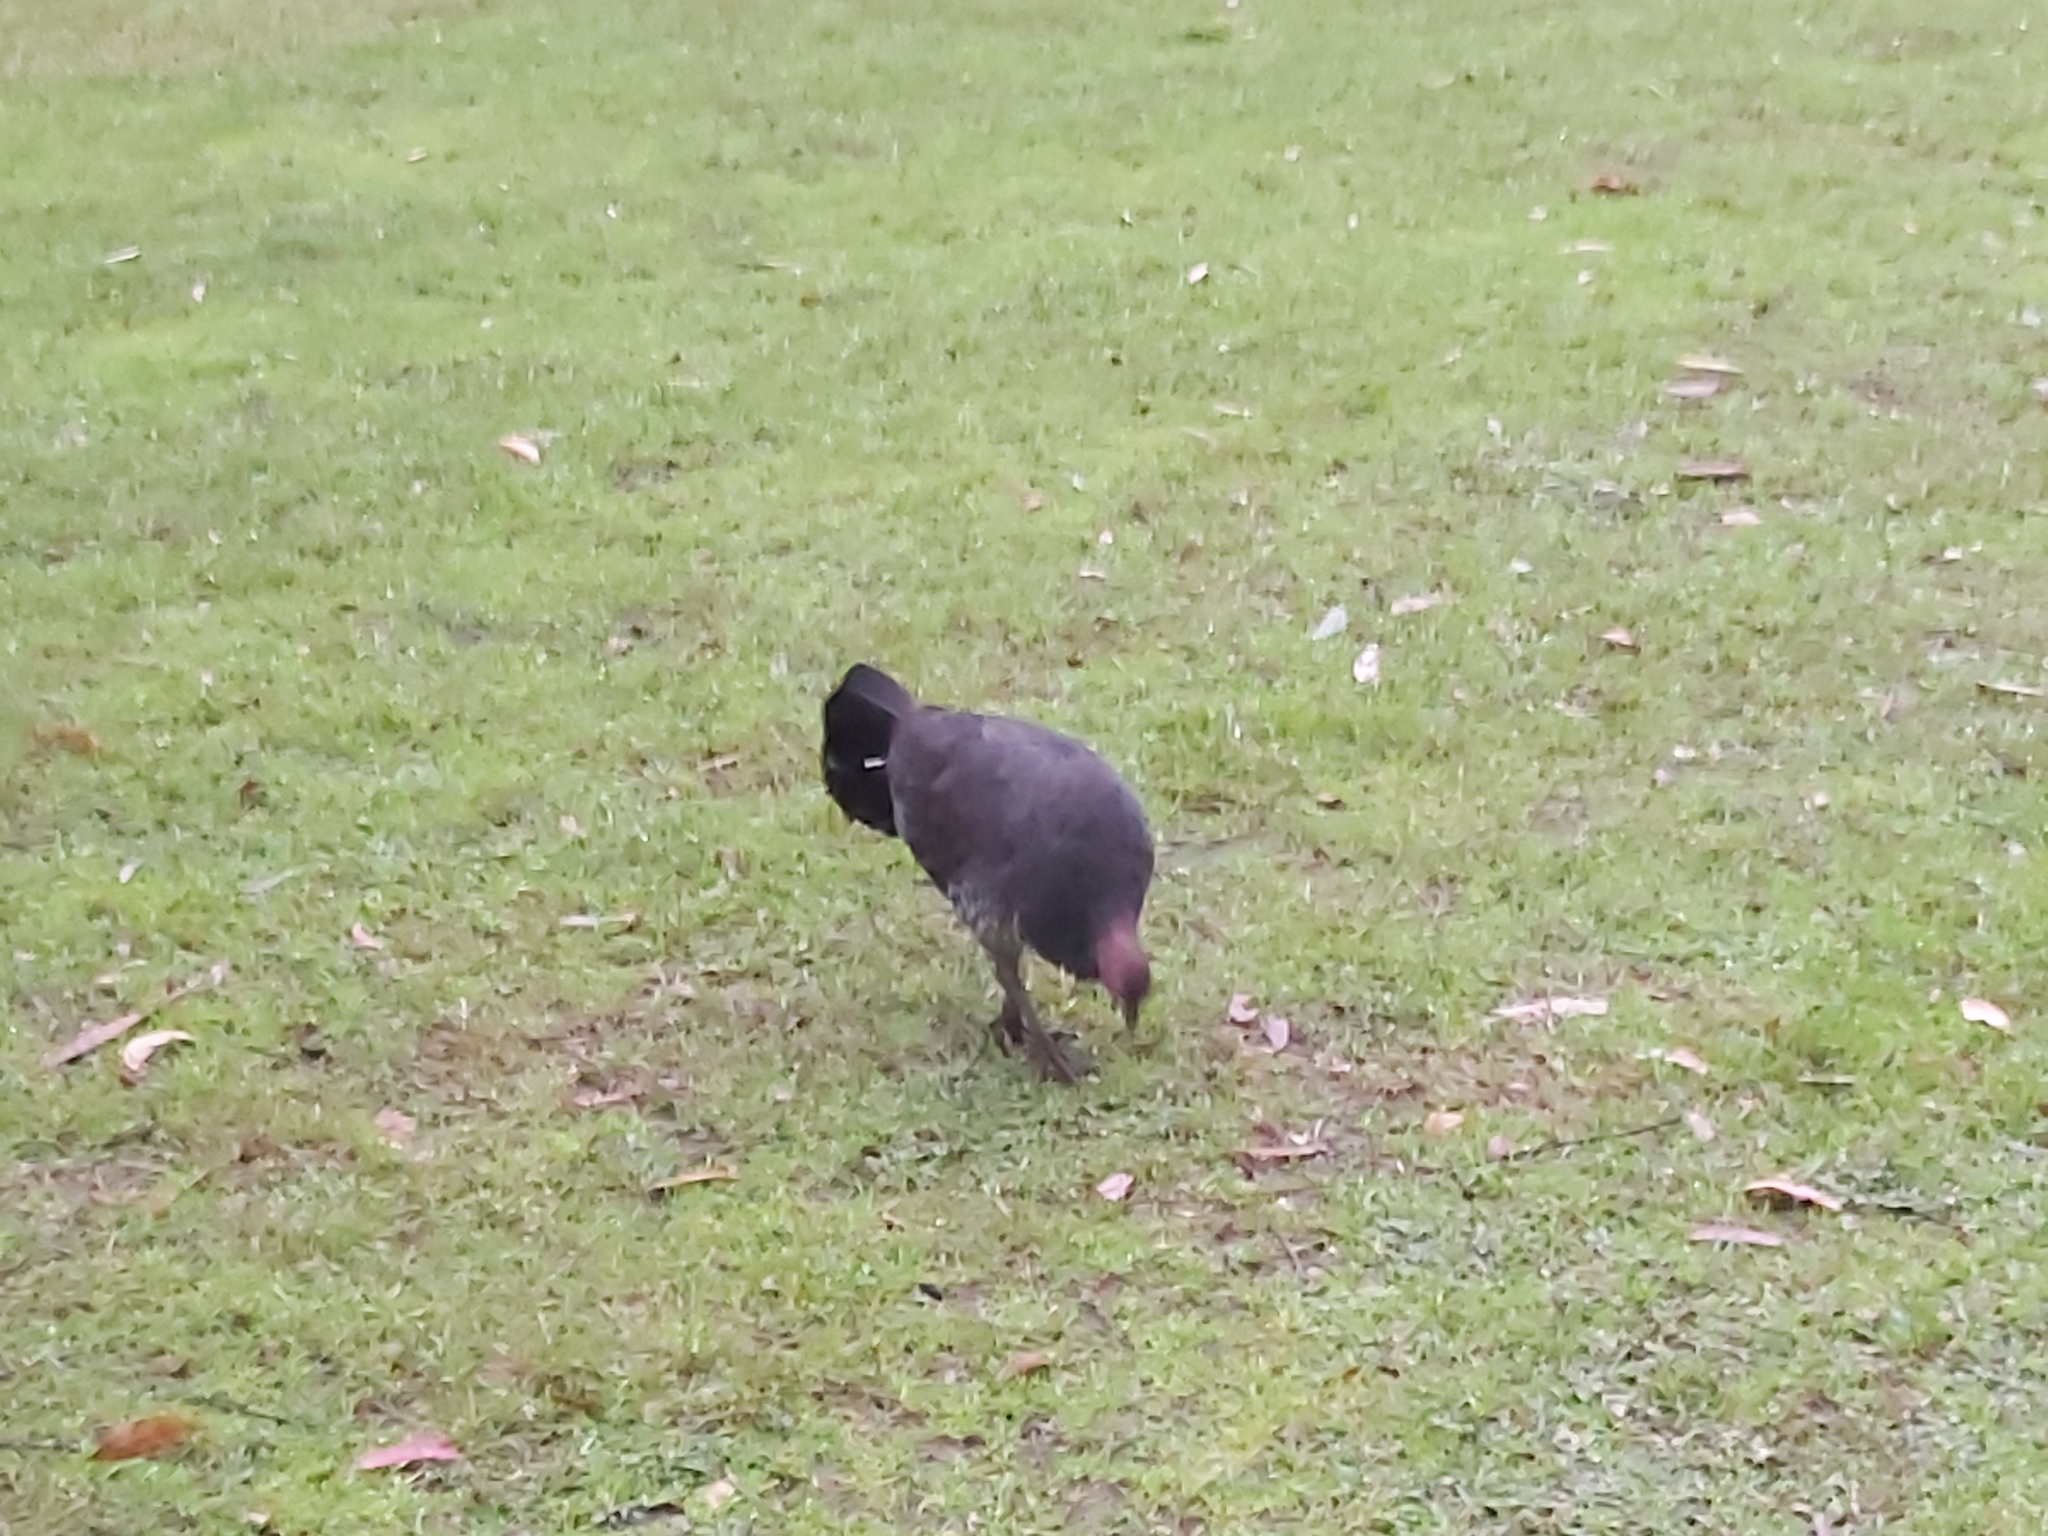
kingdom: Animalia
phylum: Chordata
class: Aves
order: Galliformes
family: Megapodiidae
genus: Alectura
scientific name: Alectura lathami
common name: Australian brushturkey
